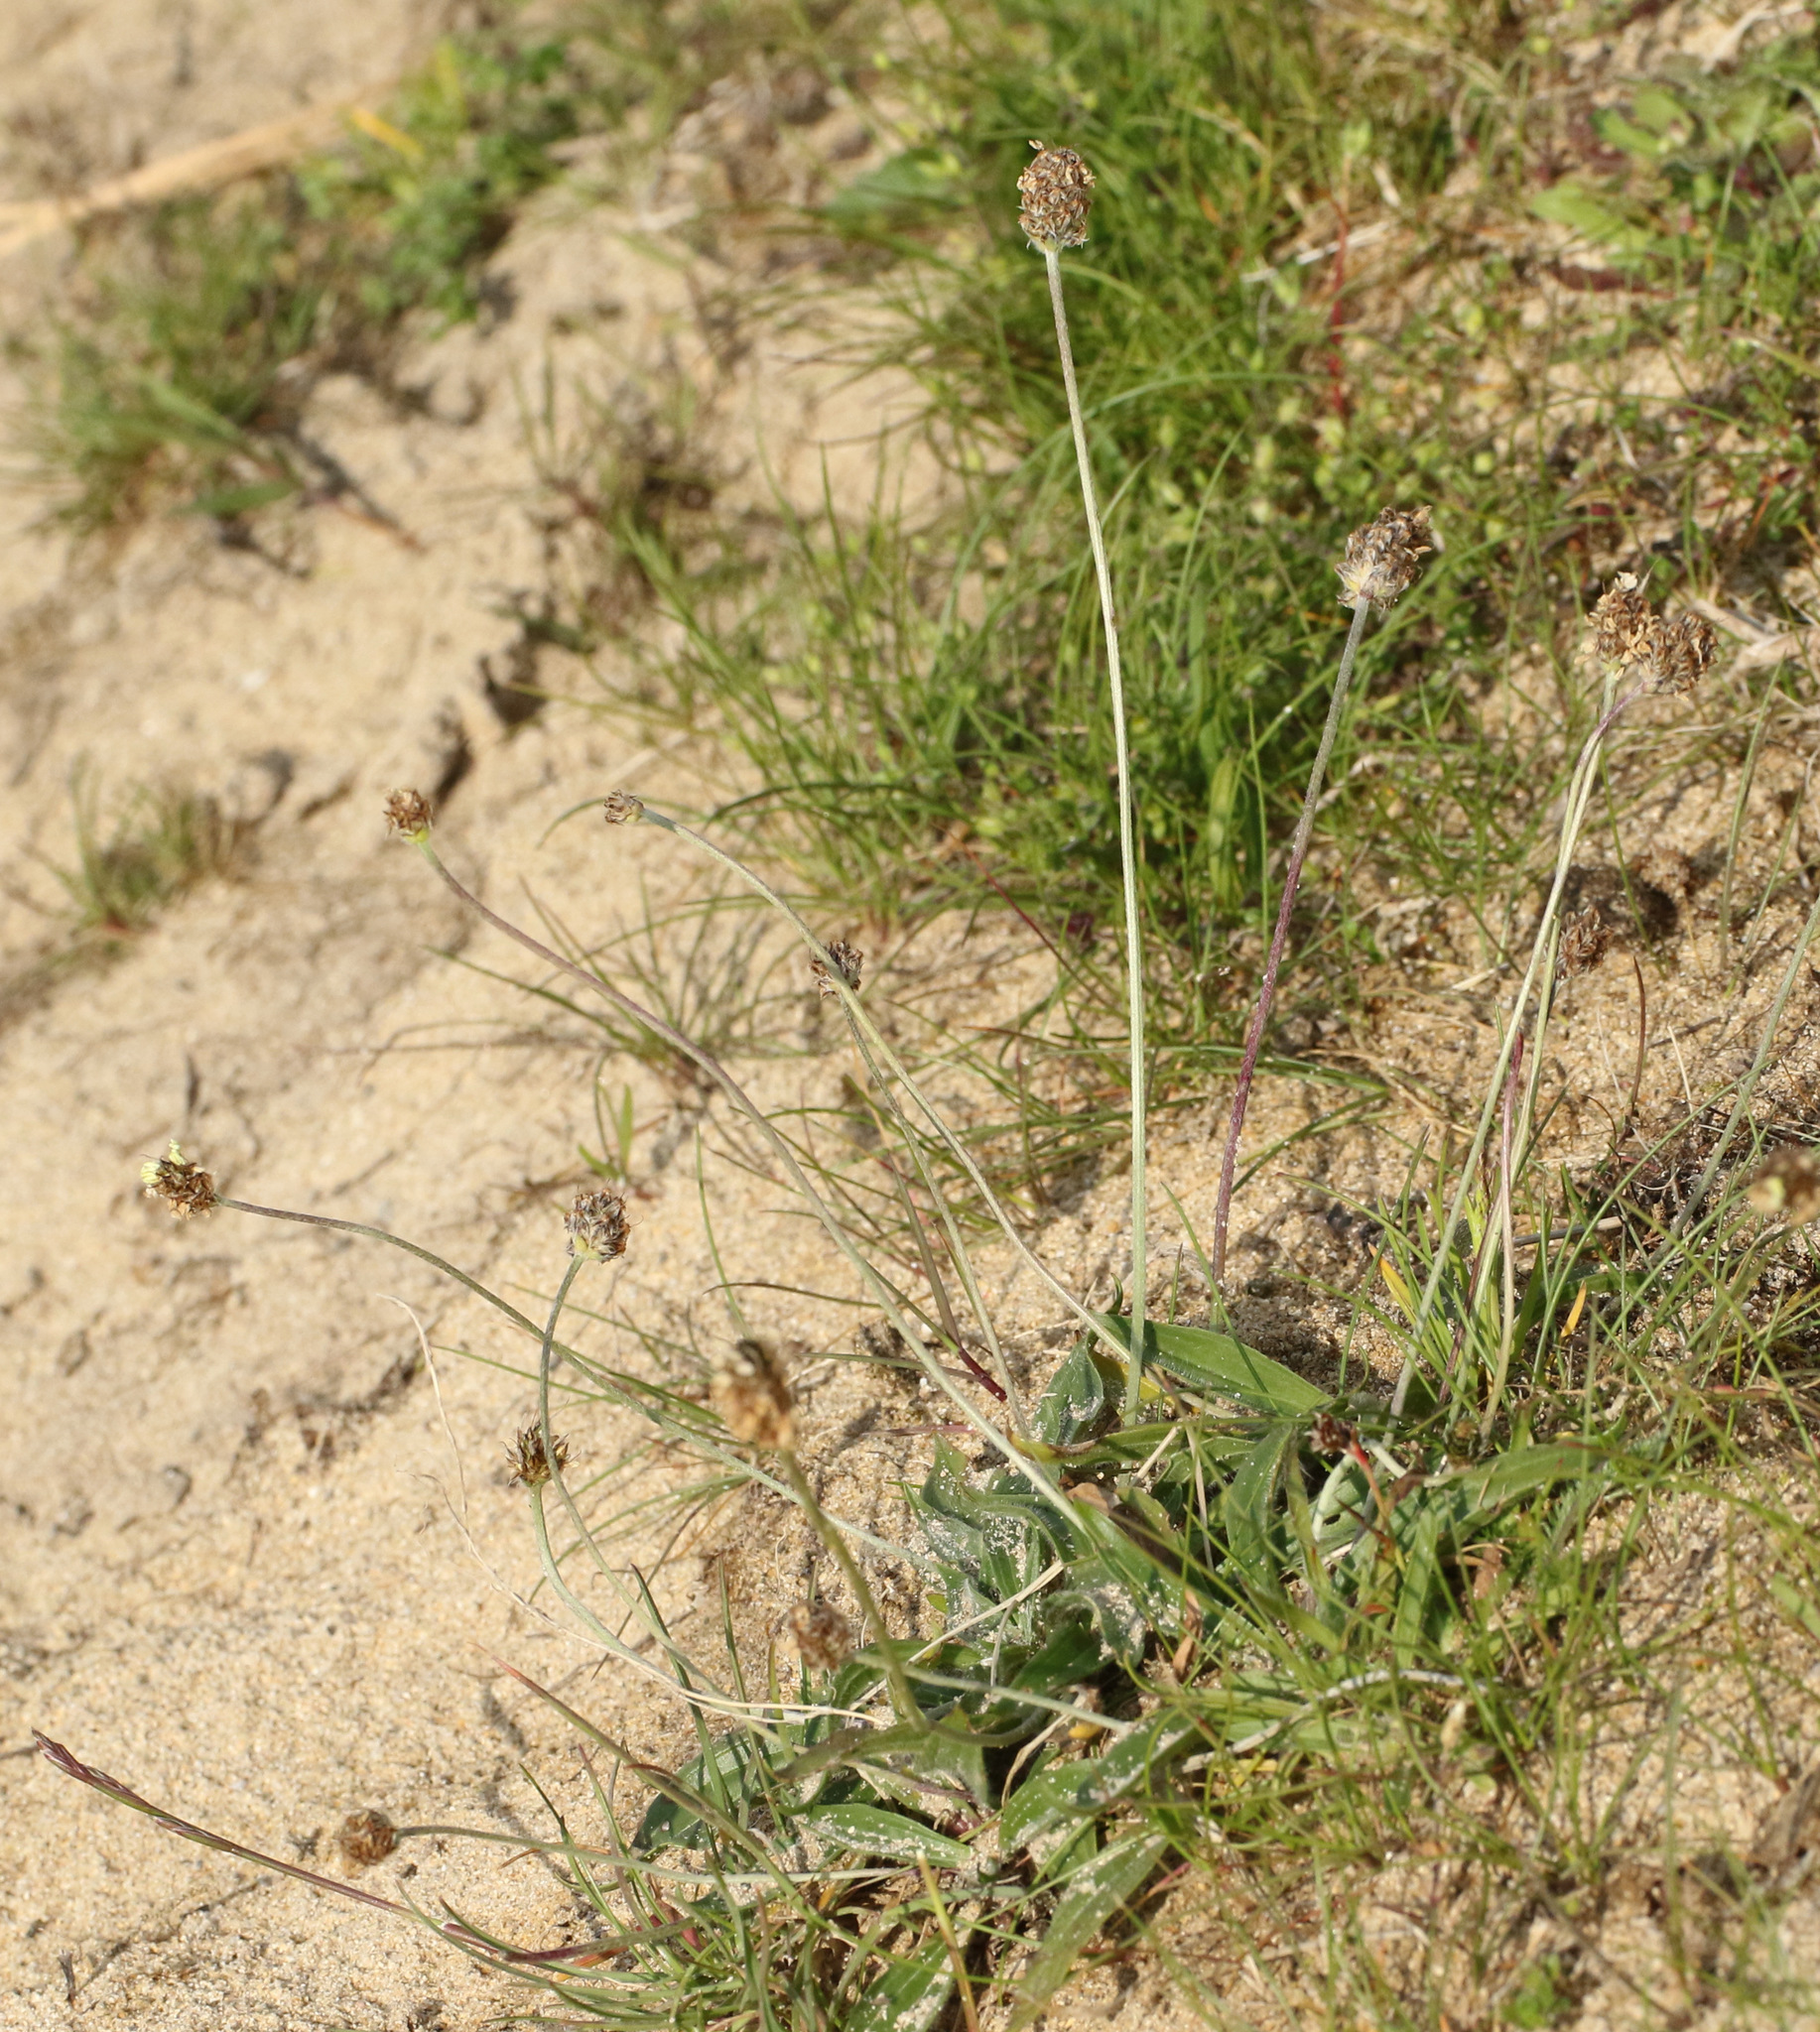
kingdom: Plantae
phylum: Tracheophyta
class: Magnoliopsida
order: Lamiales
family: Plantaginaceae
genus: Plantago
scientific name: Plantago lanceolata
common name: Ribwort plantain
